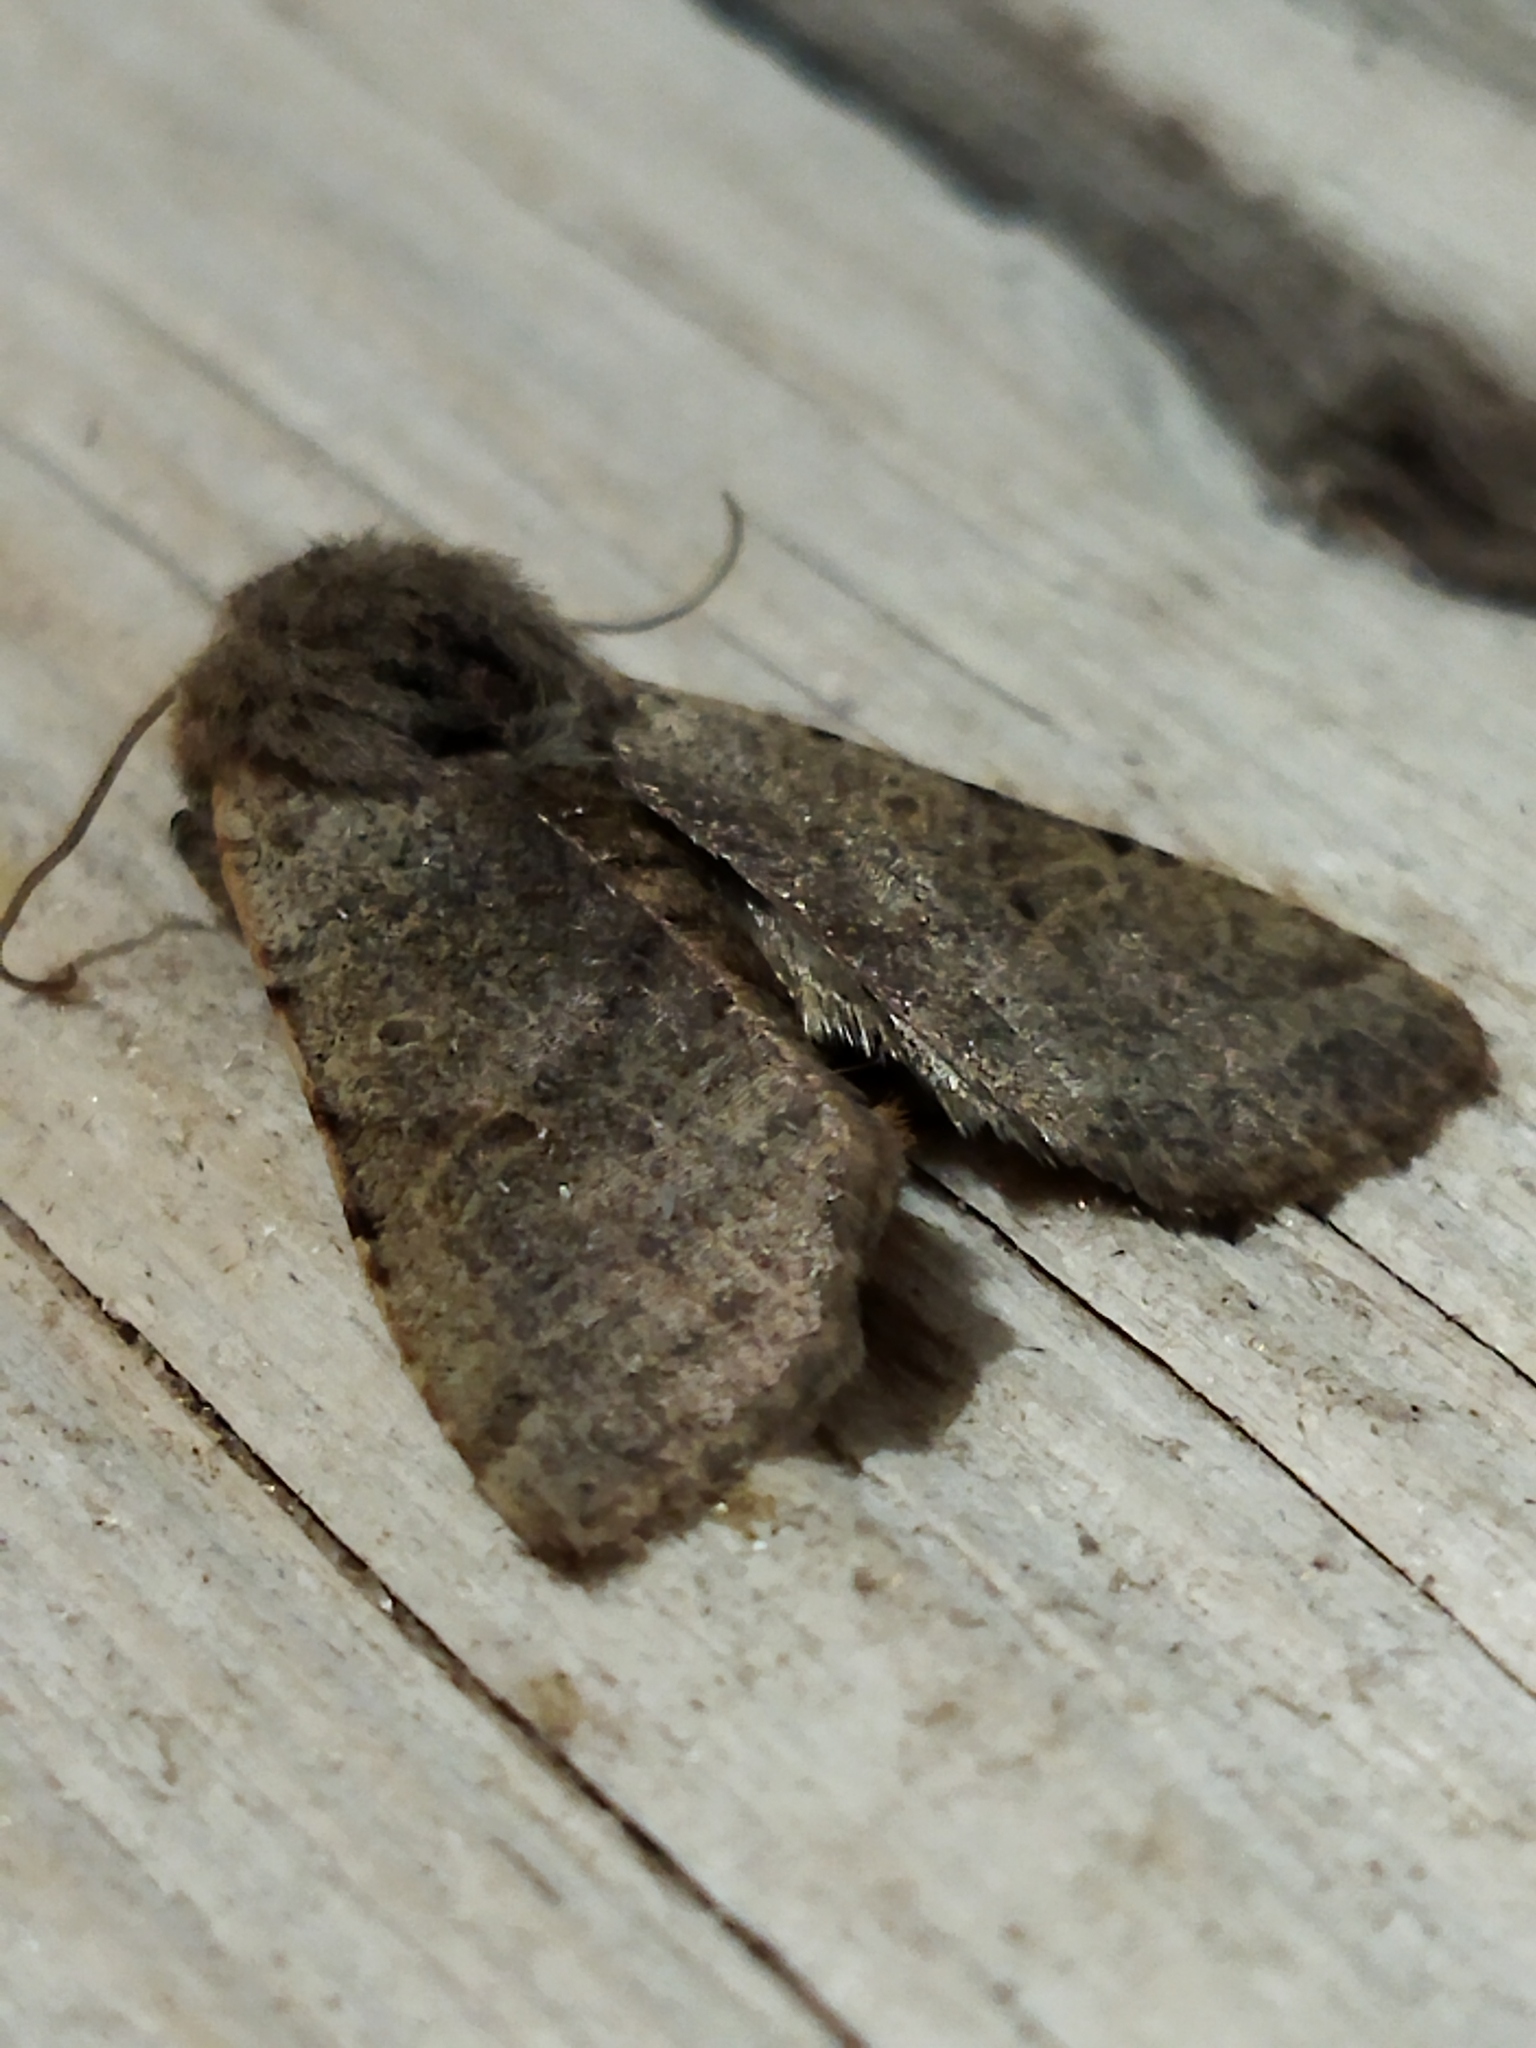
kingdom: Animalia
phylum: Arthropoda
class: Insecta
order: Lepidoptera
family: Noctuidae
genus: Agrochola
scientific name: Agrochola lychnidis
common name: Beaded chestnut
